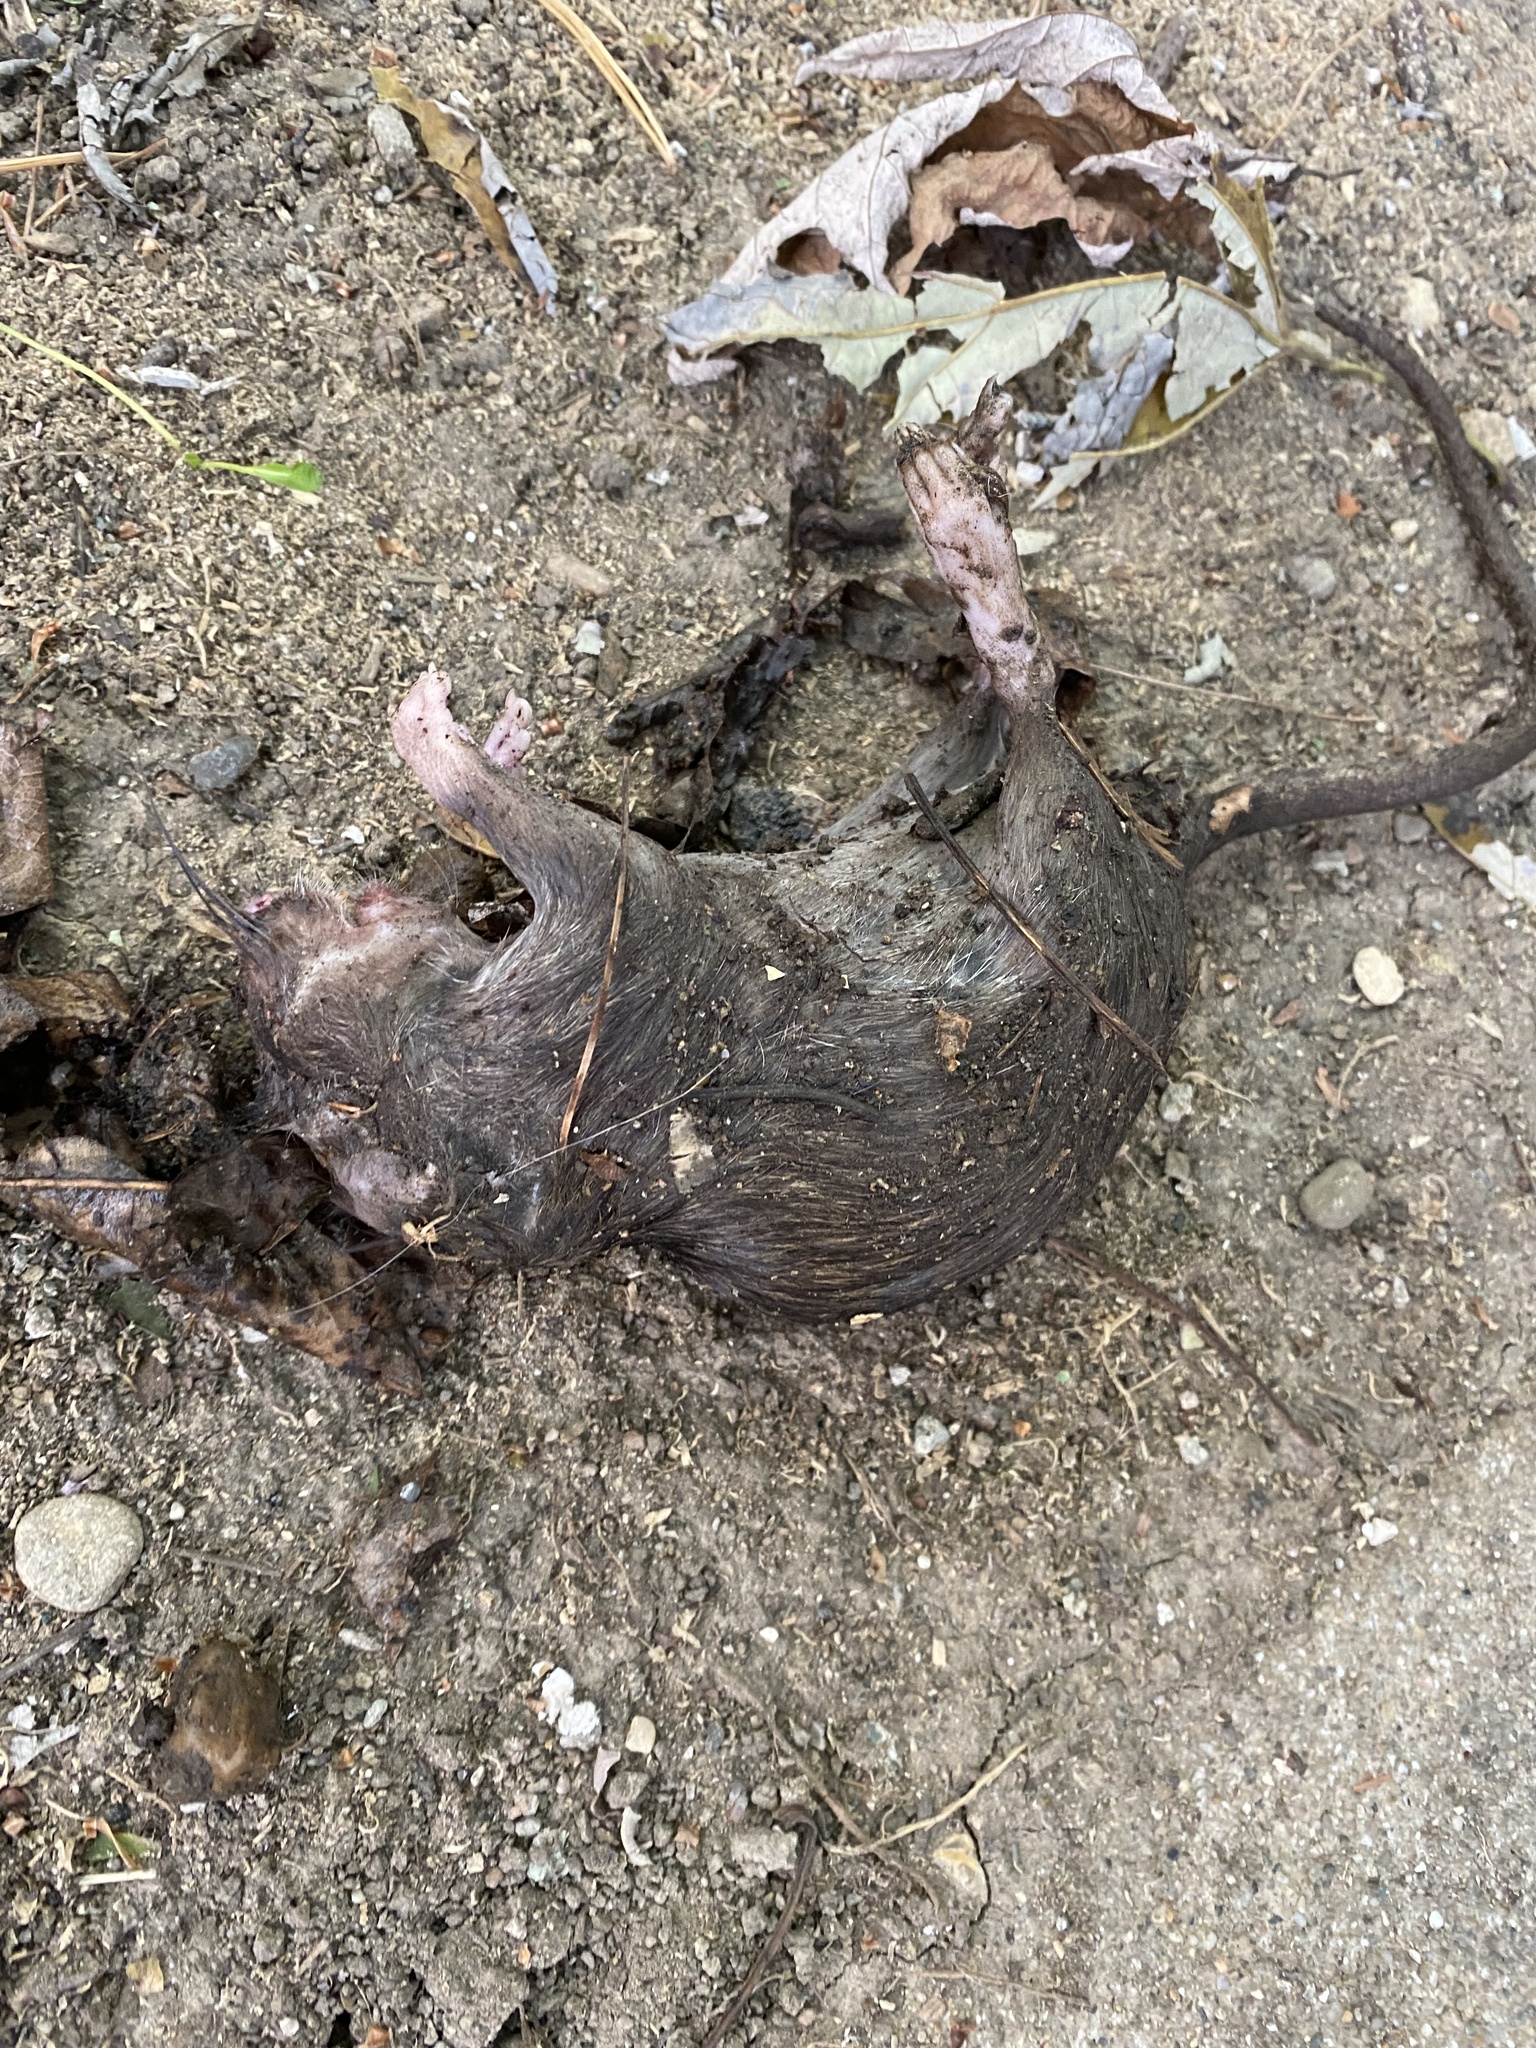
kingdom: Animalia
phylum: Chordata
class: Mammalia
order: Rodentia
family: Muridae
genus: Rattus
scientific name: Rattus norvegicus
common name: Brown rat
